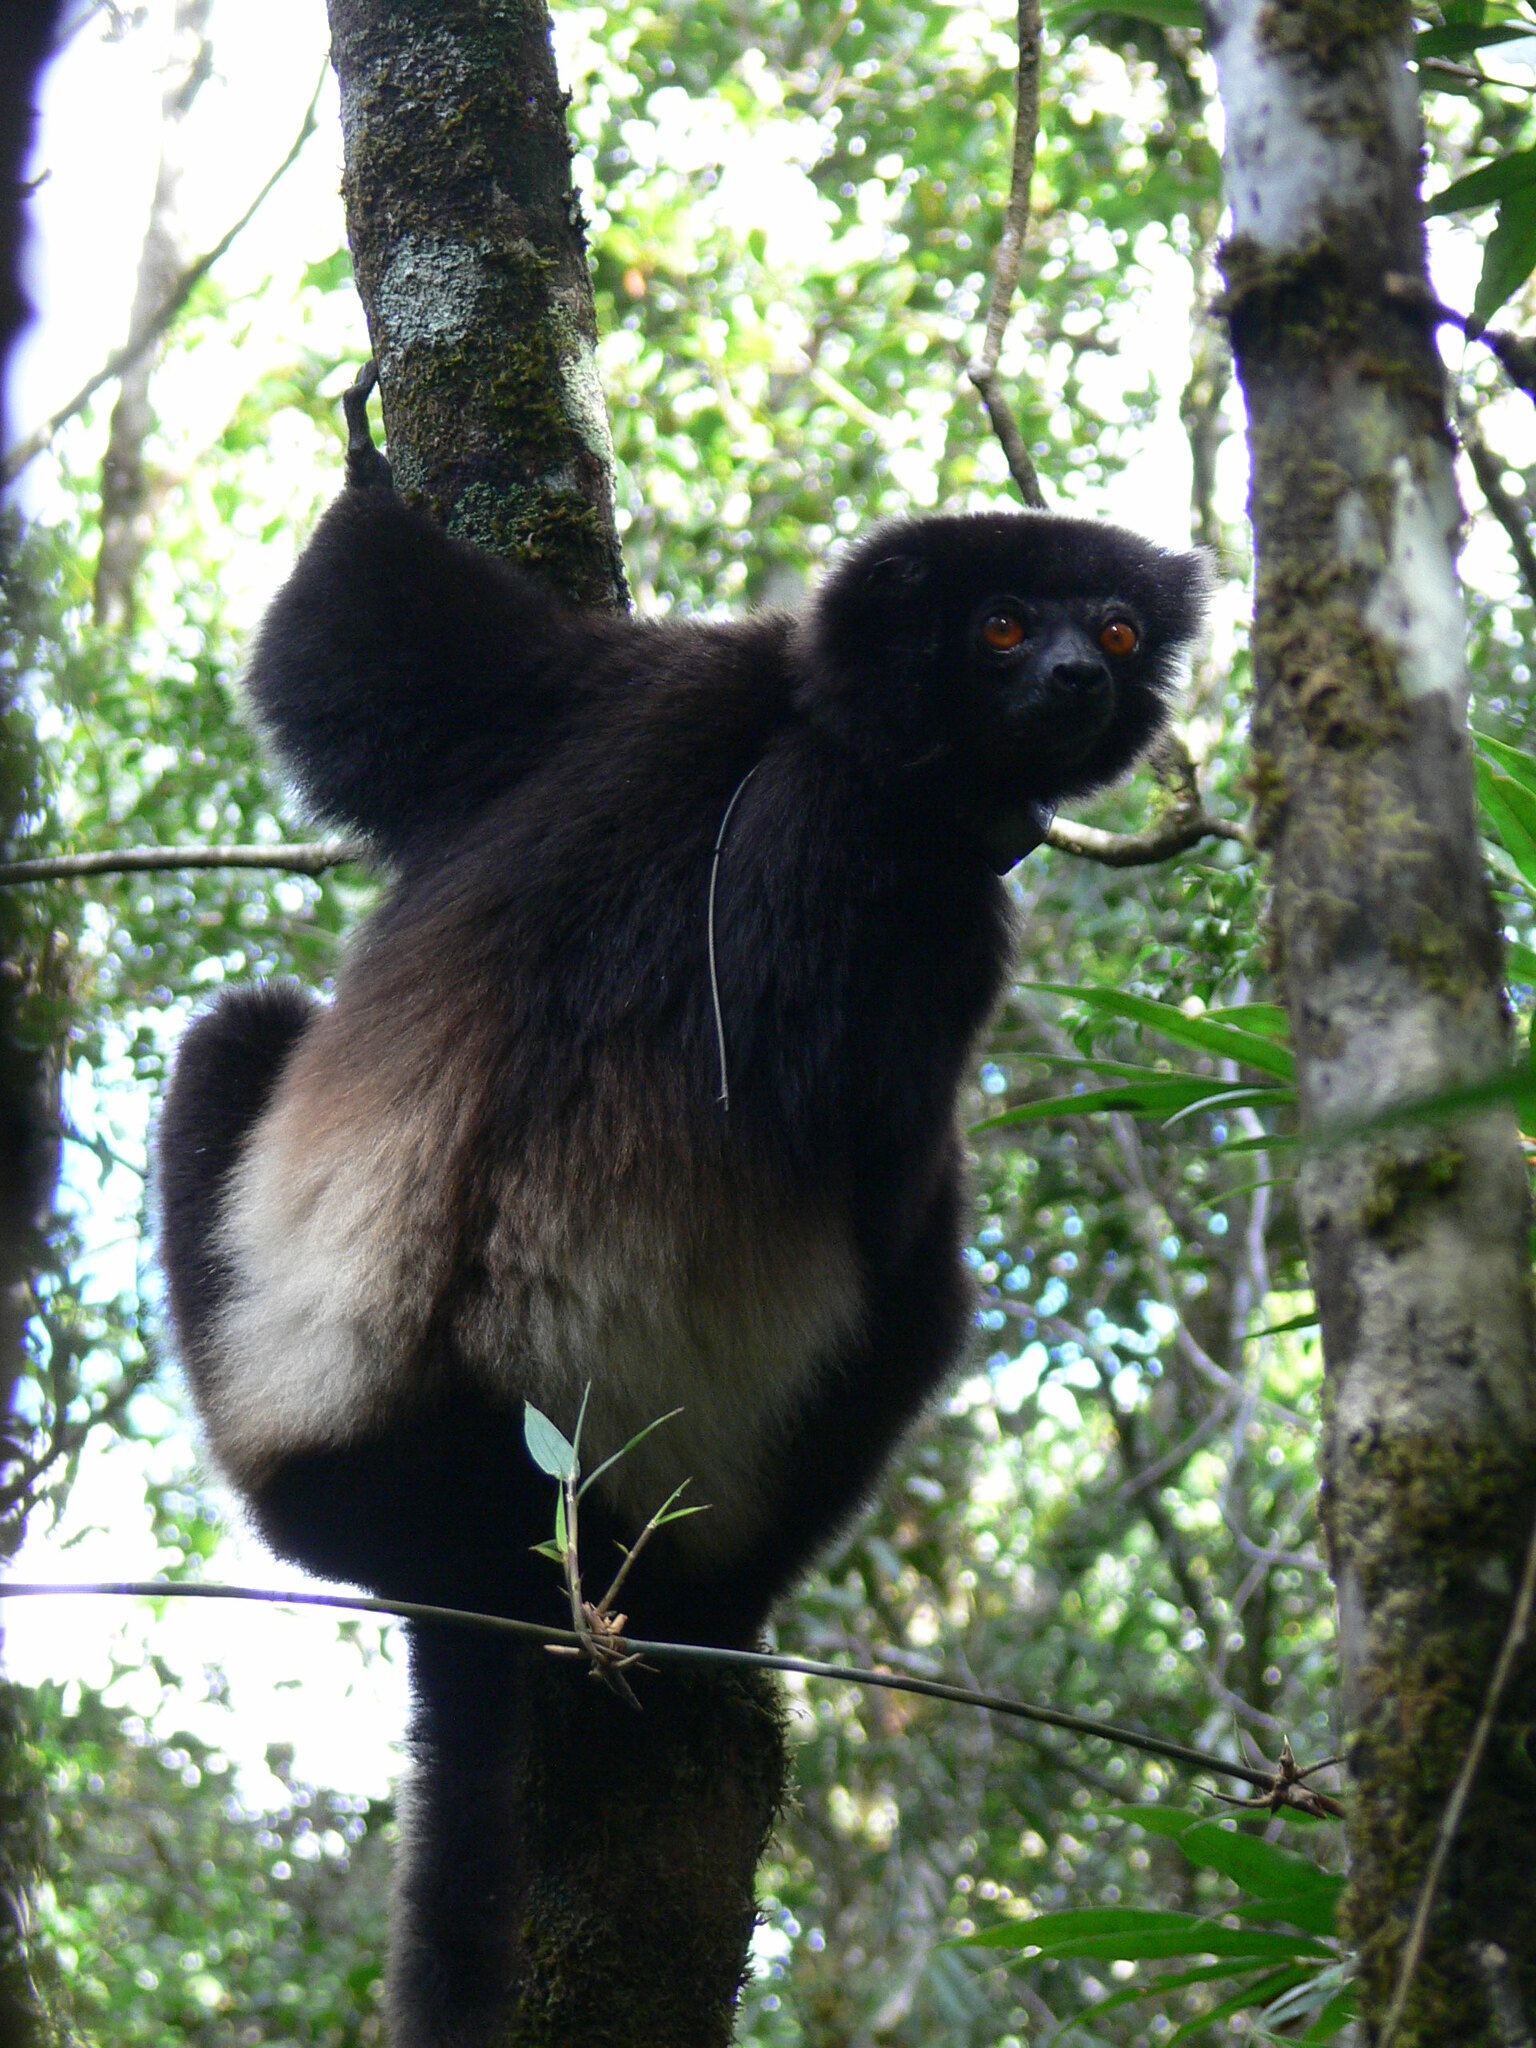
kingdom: Animalia
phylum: Chordata
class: Mammalia
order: Primates
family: Indriidae
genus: Propithecus
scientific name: Propithecus edwardsi
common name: Milne-edwards’s simpona
